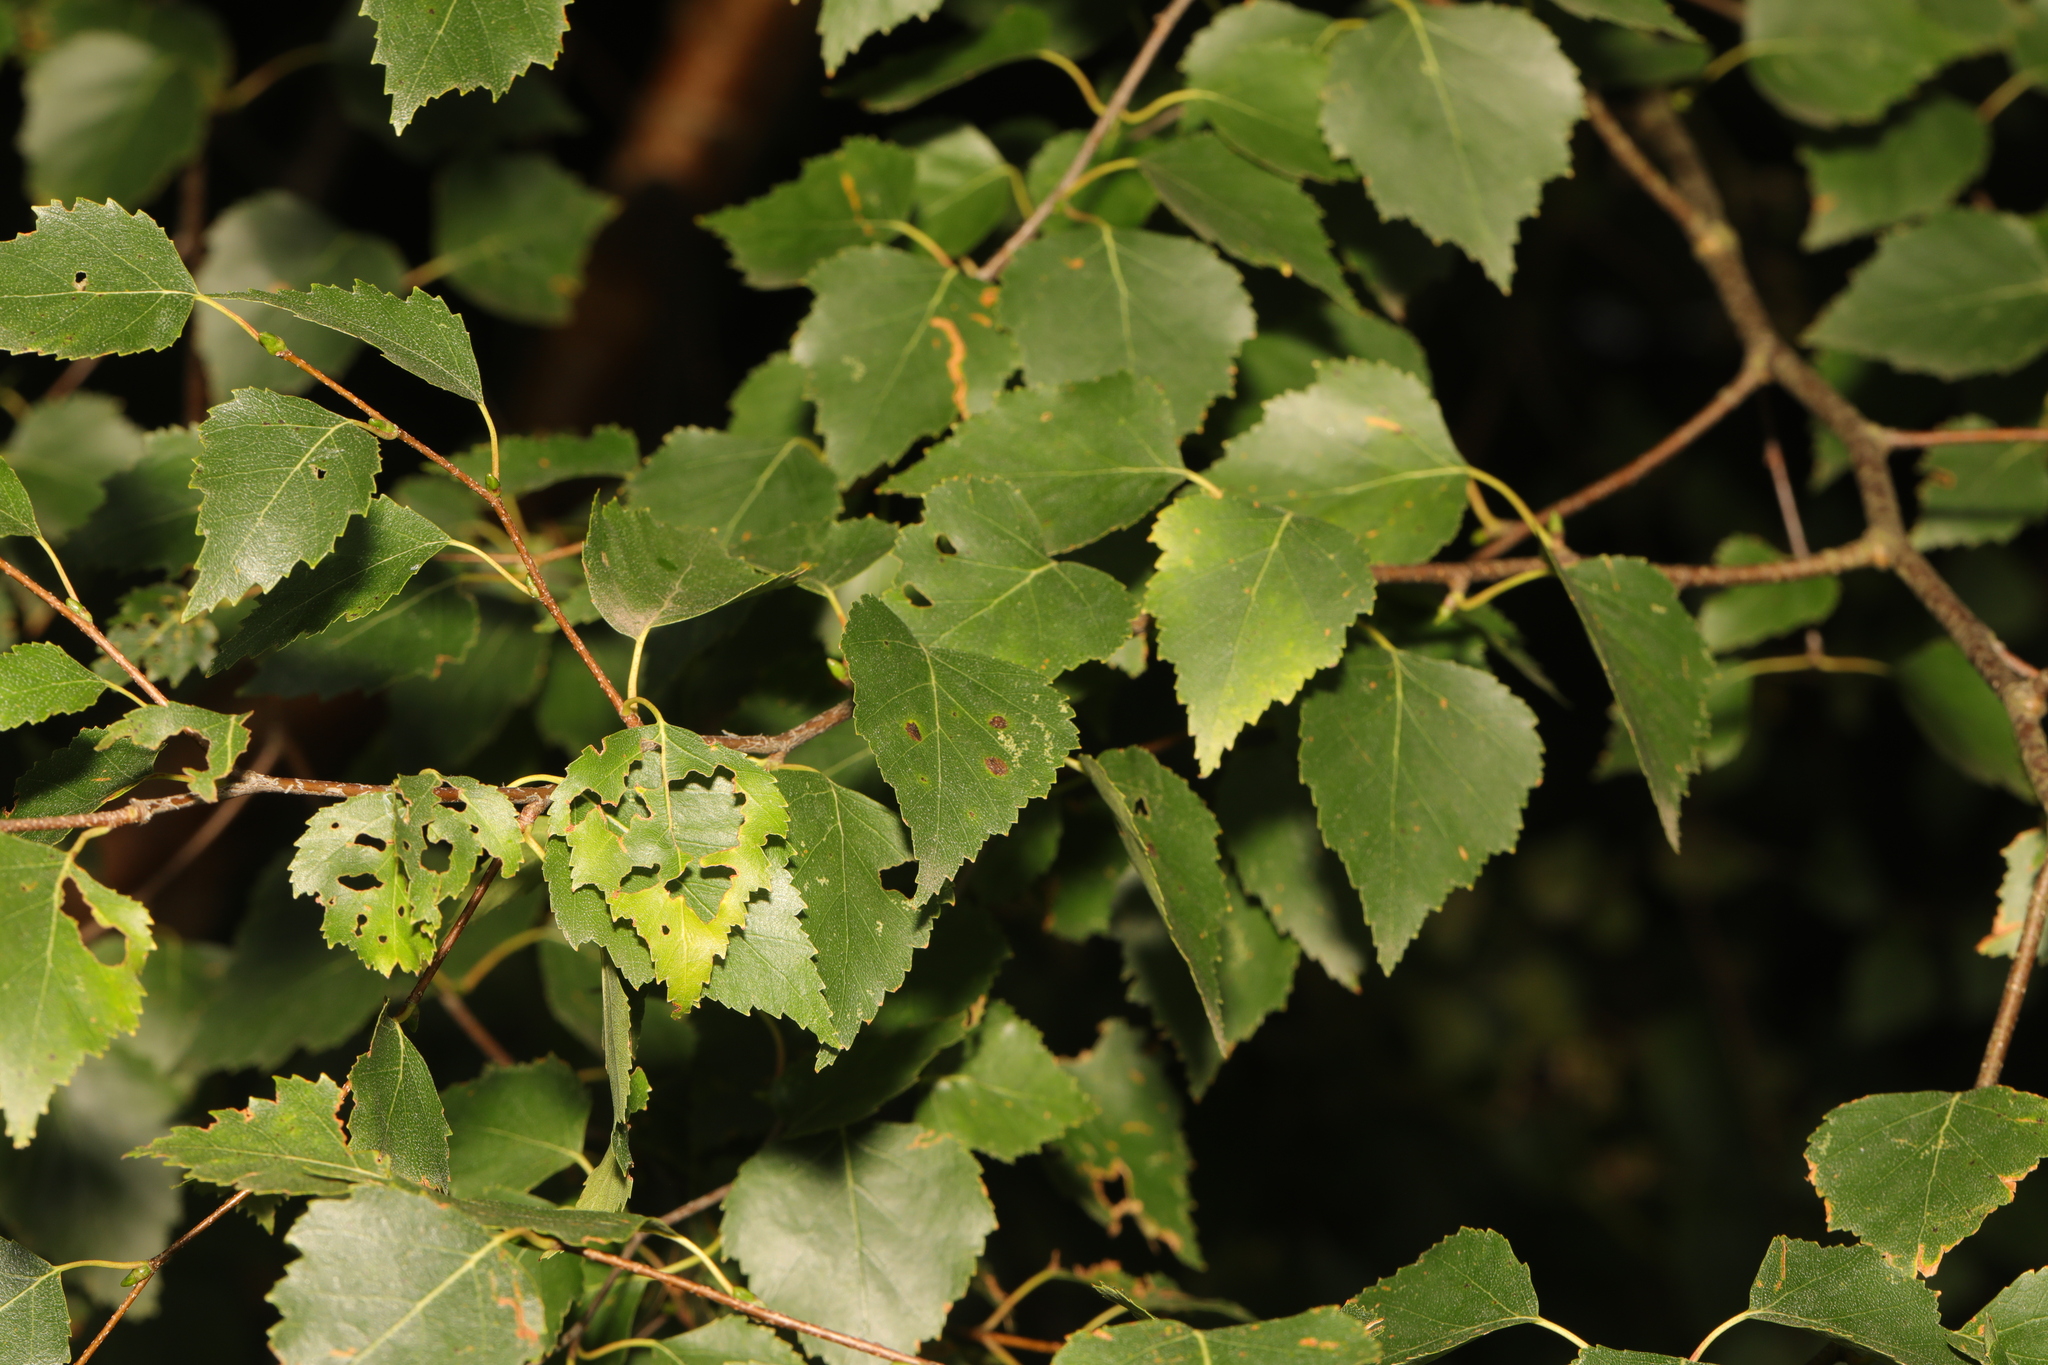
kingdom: Plantae
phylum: Tracheophyta
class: Magnoliopsida
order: Fagales
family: Betulaceae
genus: Betula
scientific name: Betula pendula
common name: Silver birch
